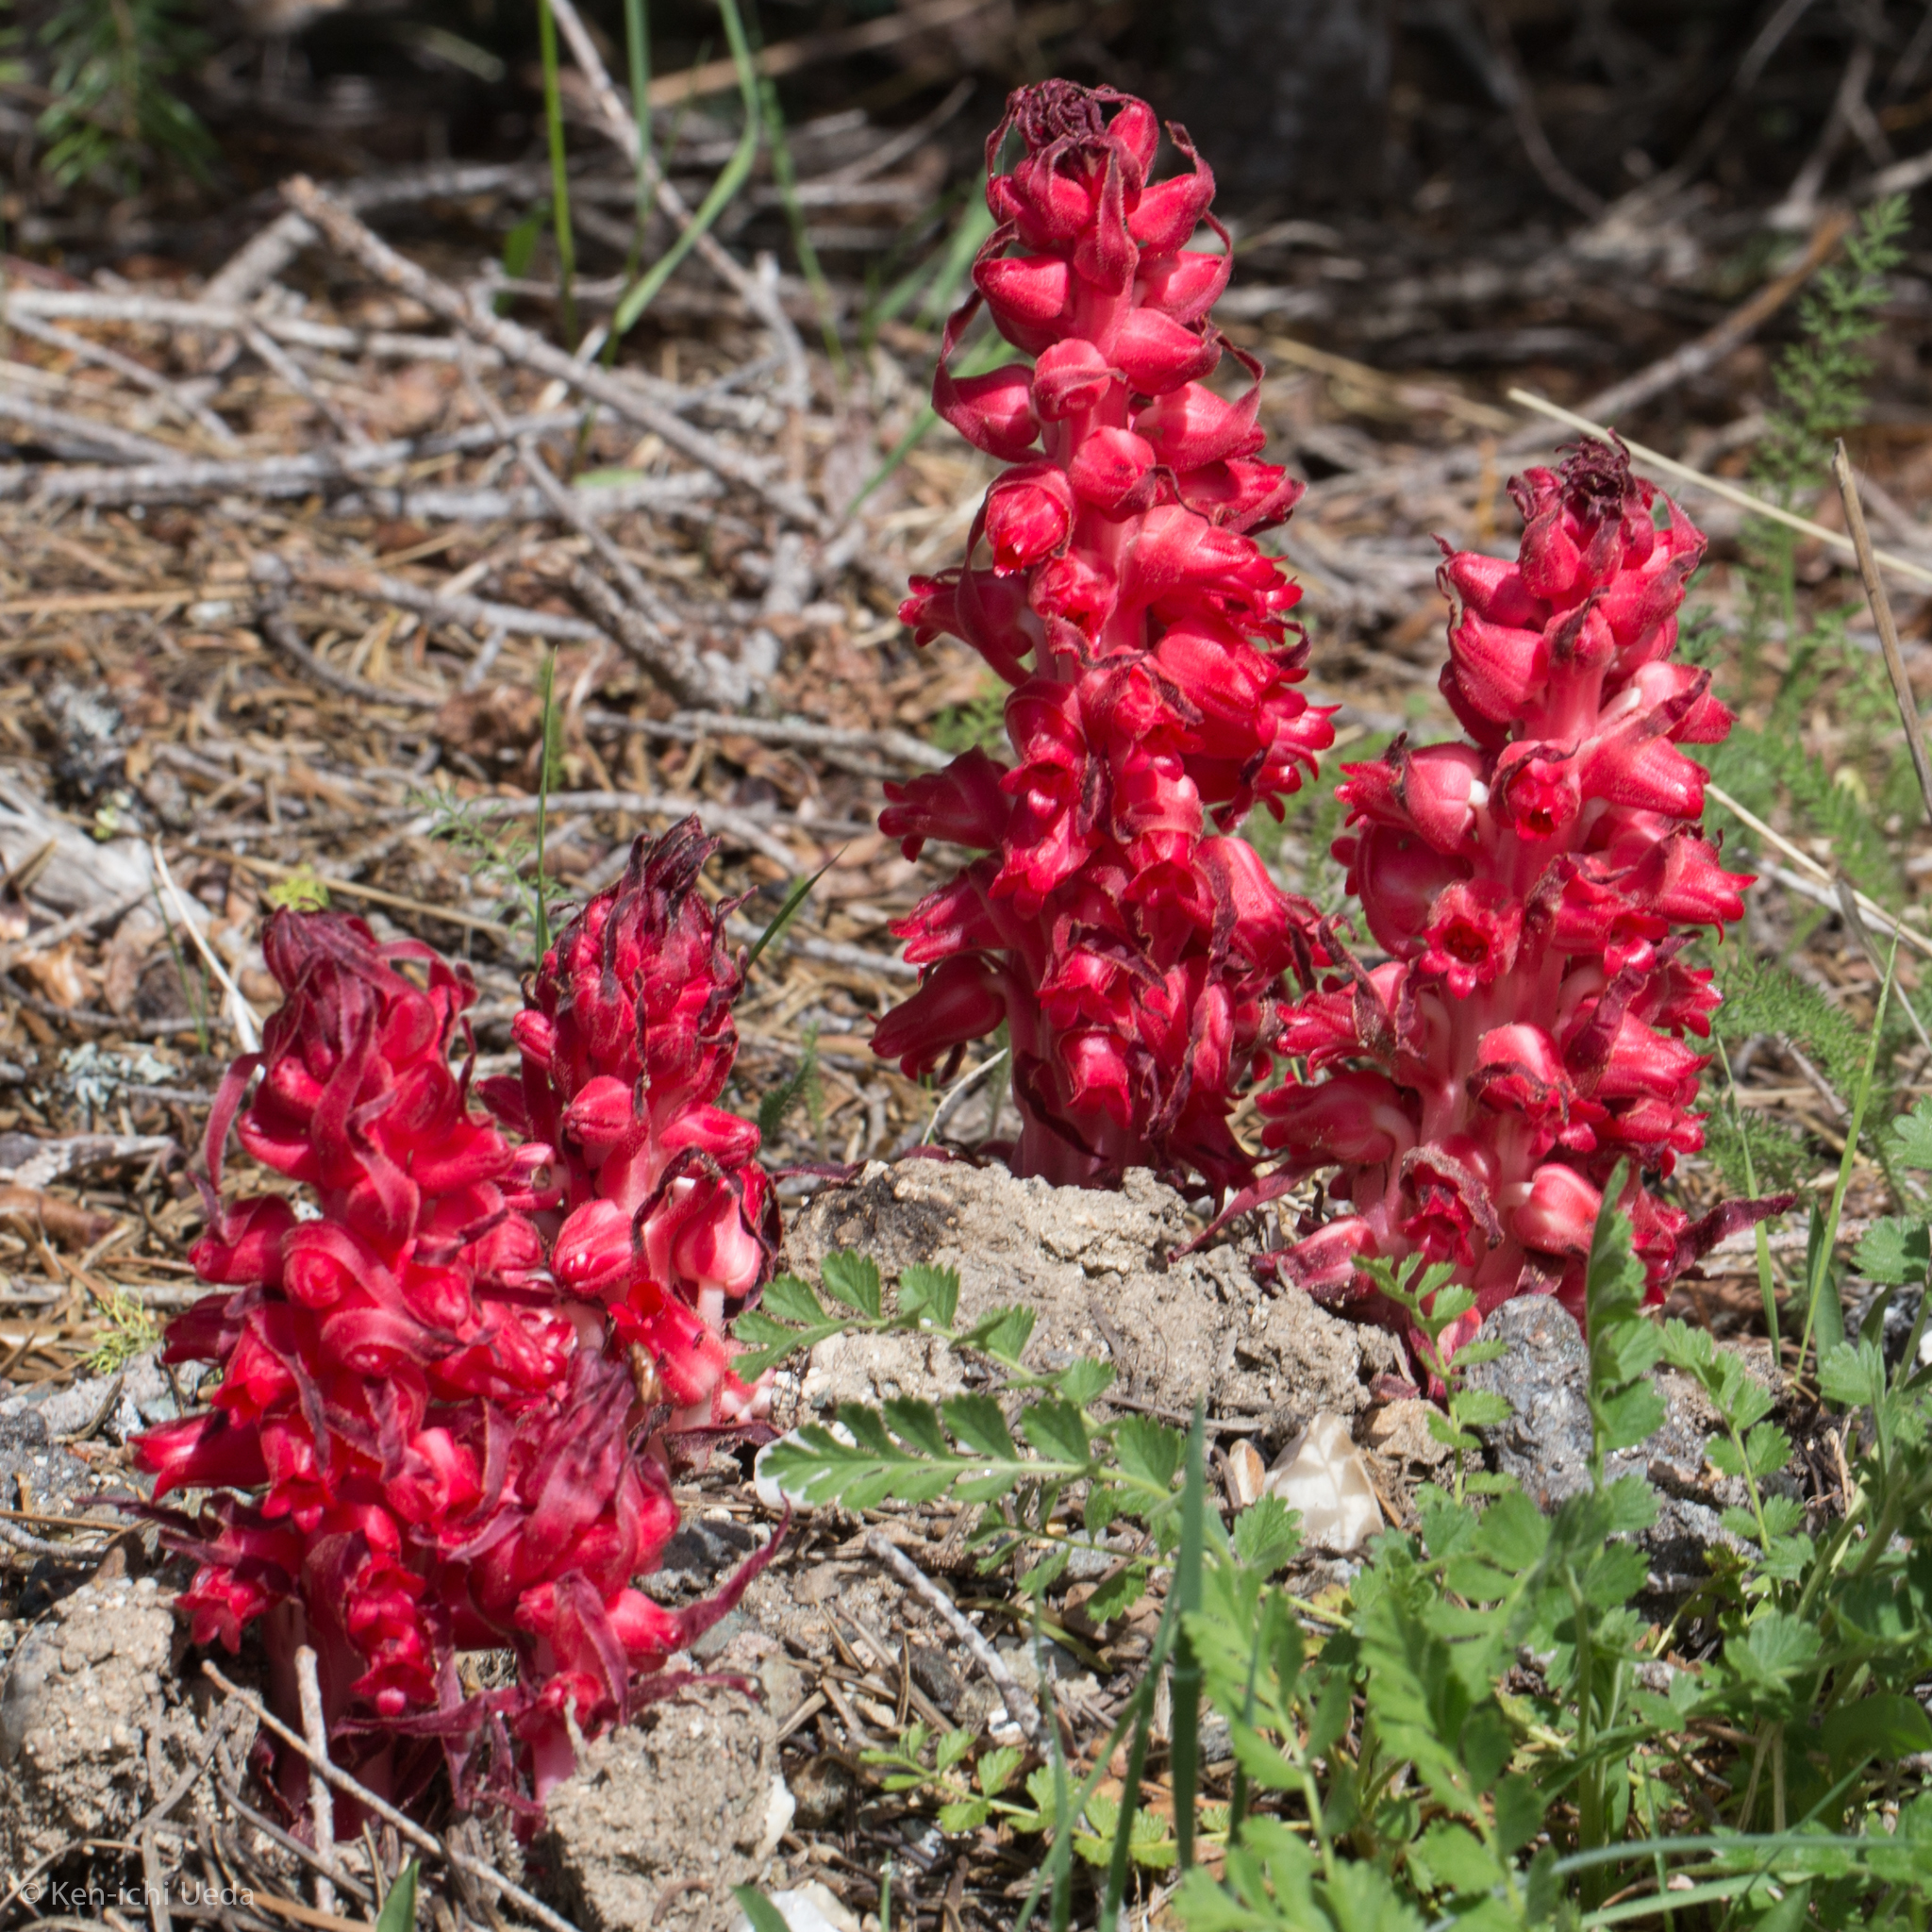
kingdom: Plantae
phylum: Tracheophyta
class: Magnoliopsida
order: Ericales
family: Ericaceae
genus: Sarcodes
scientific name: Sarcodes sanguinea
